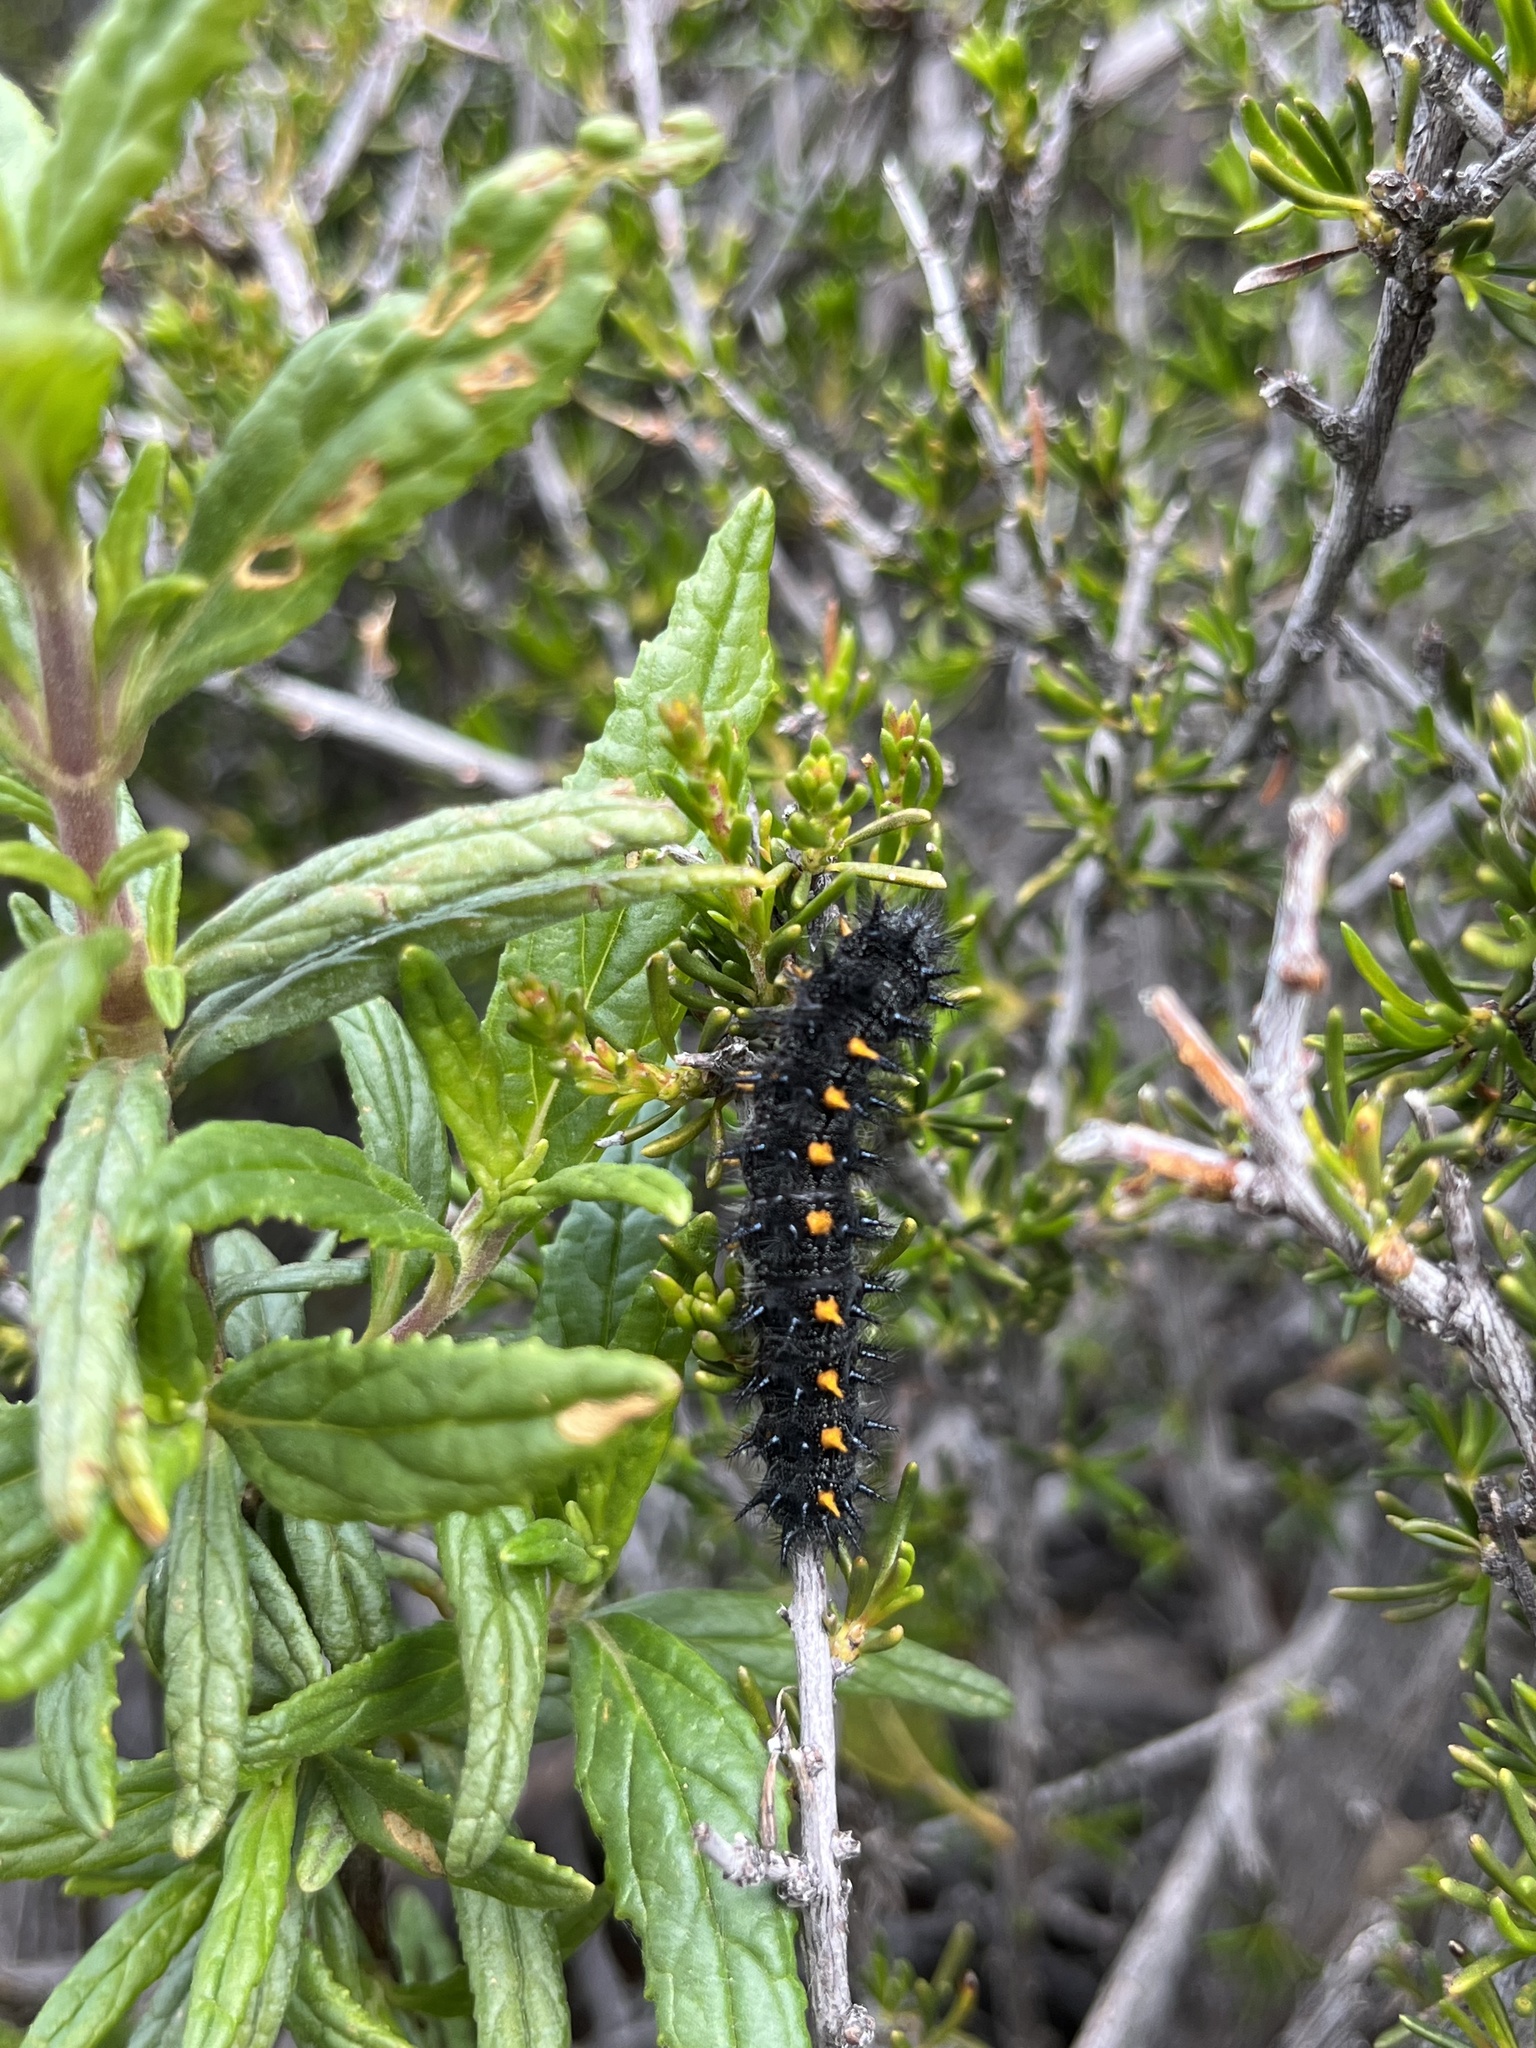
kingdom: Animalia
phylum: Arthropoda
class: Insecta
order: Lepidoptera
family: Nymphalidae
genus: Occidryas
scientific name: Occidryas chalcedona
